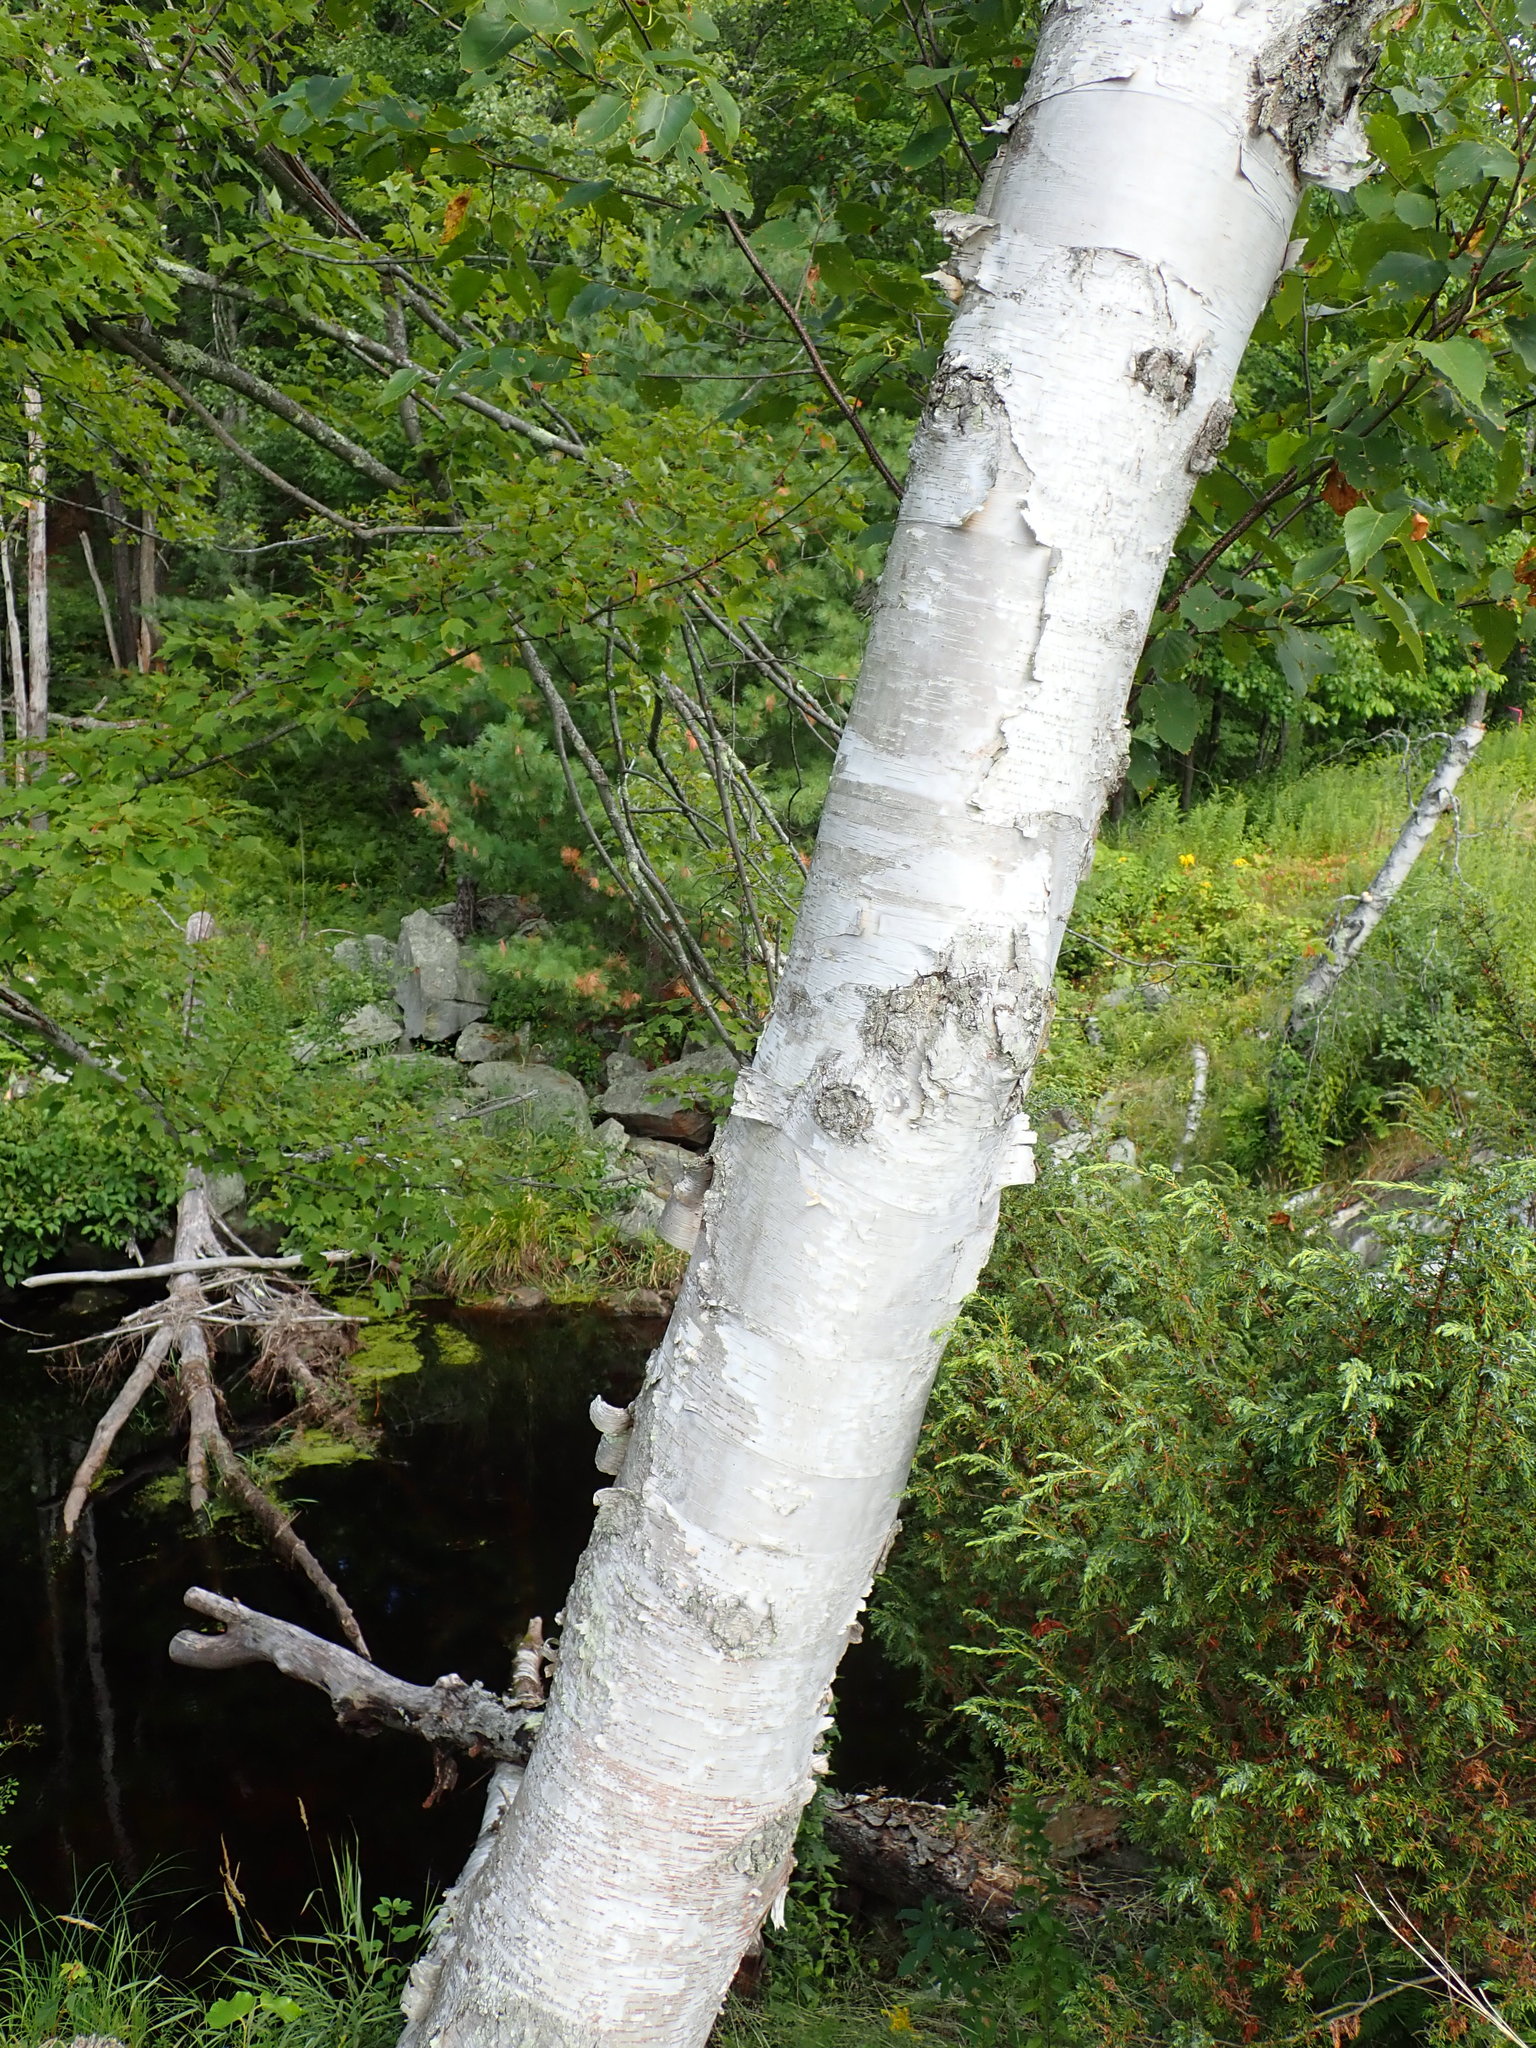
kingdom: Plantae
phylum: Tracheophyta
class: Magnoliopsida
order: Fagales
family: Betulaceae
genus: Betula
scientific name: Betula papyrifera
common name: Paper birch
